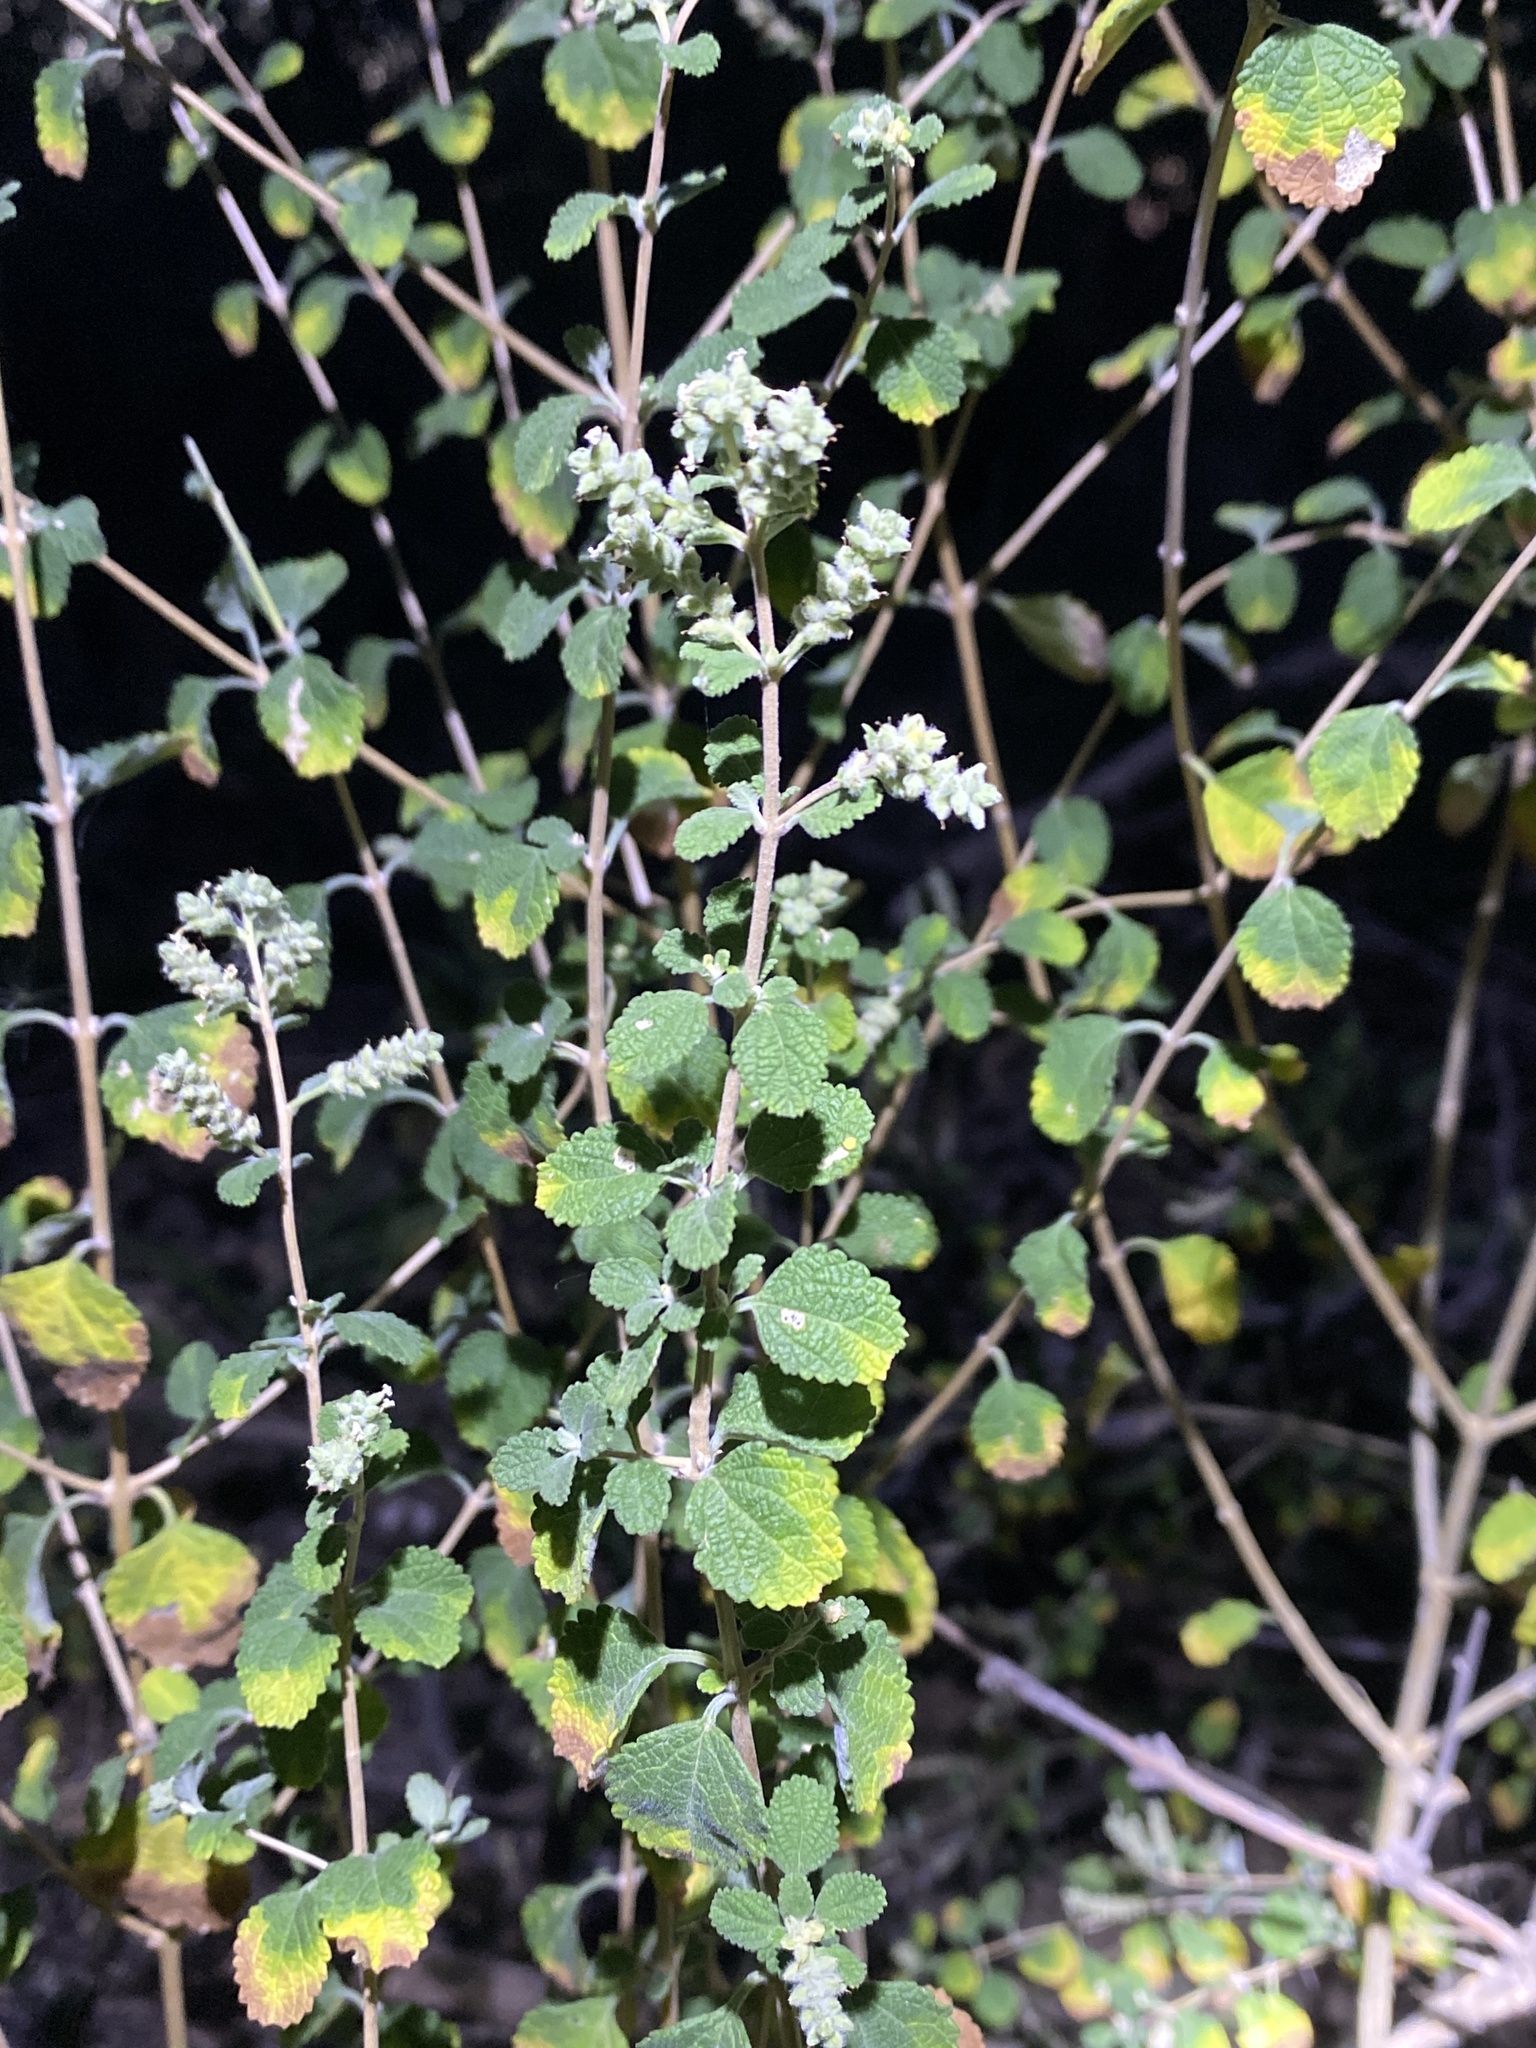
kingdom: Plantae
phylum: Tracheophyta
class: Magnoliopsida
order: Lamiales
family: Verbenaceae
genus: Aloysia
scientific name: Aloysia wrightii
